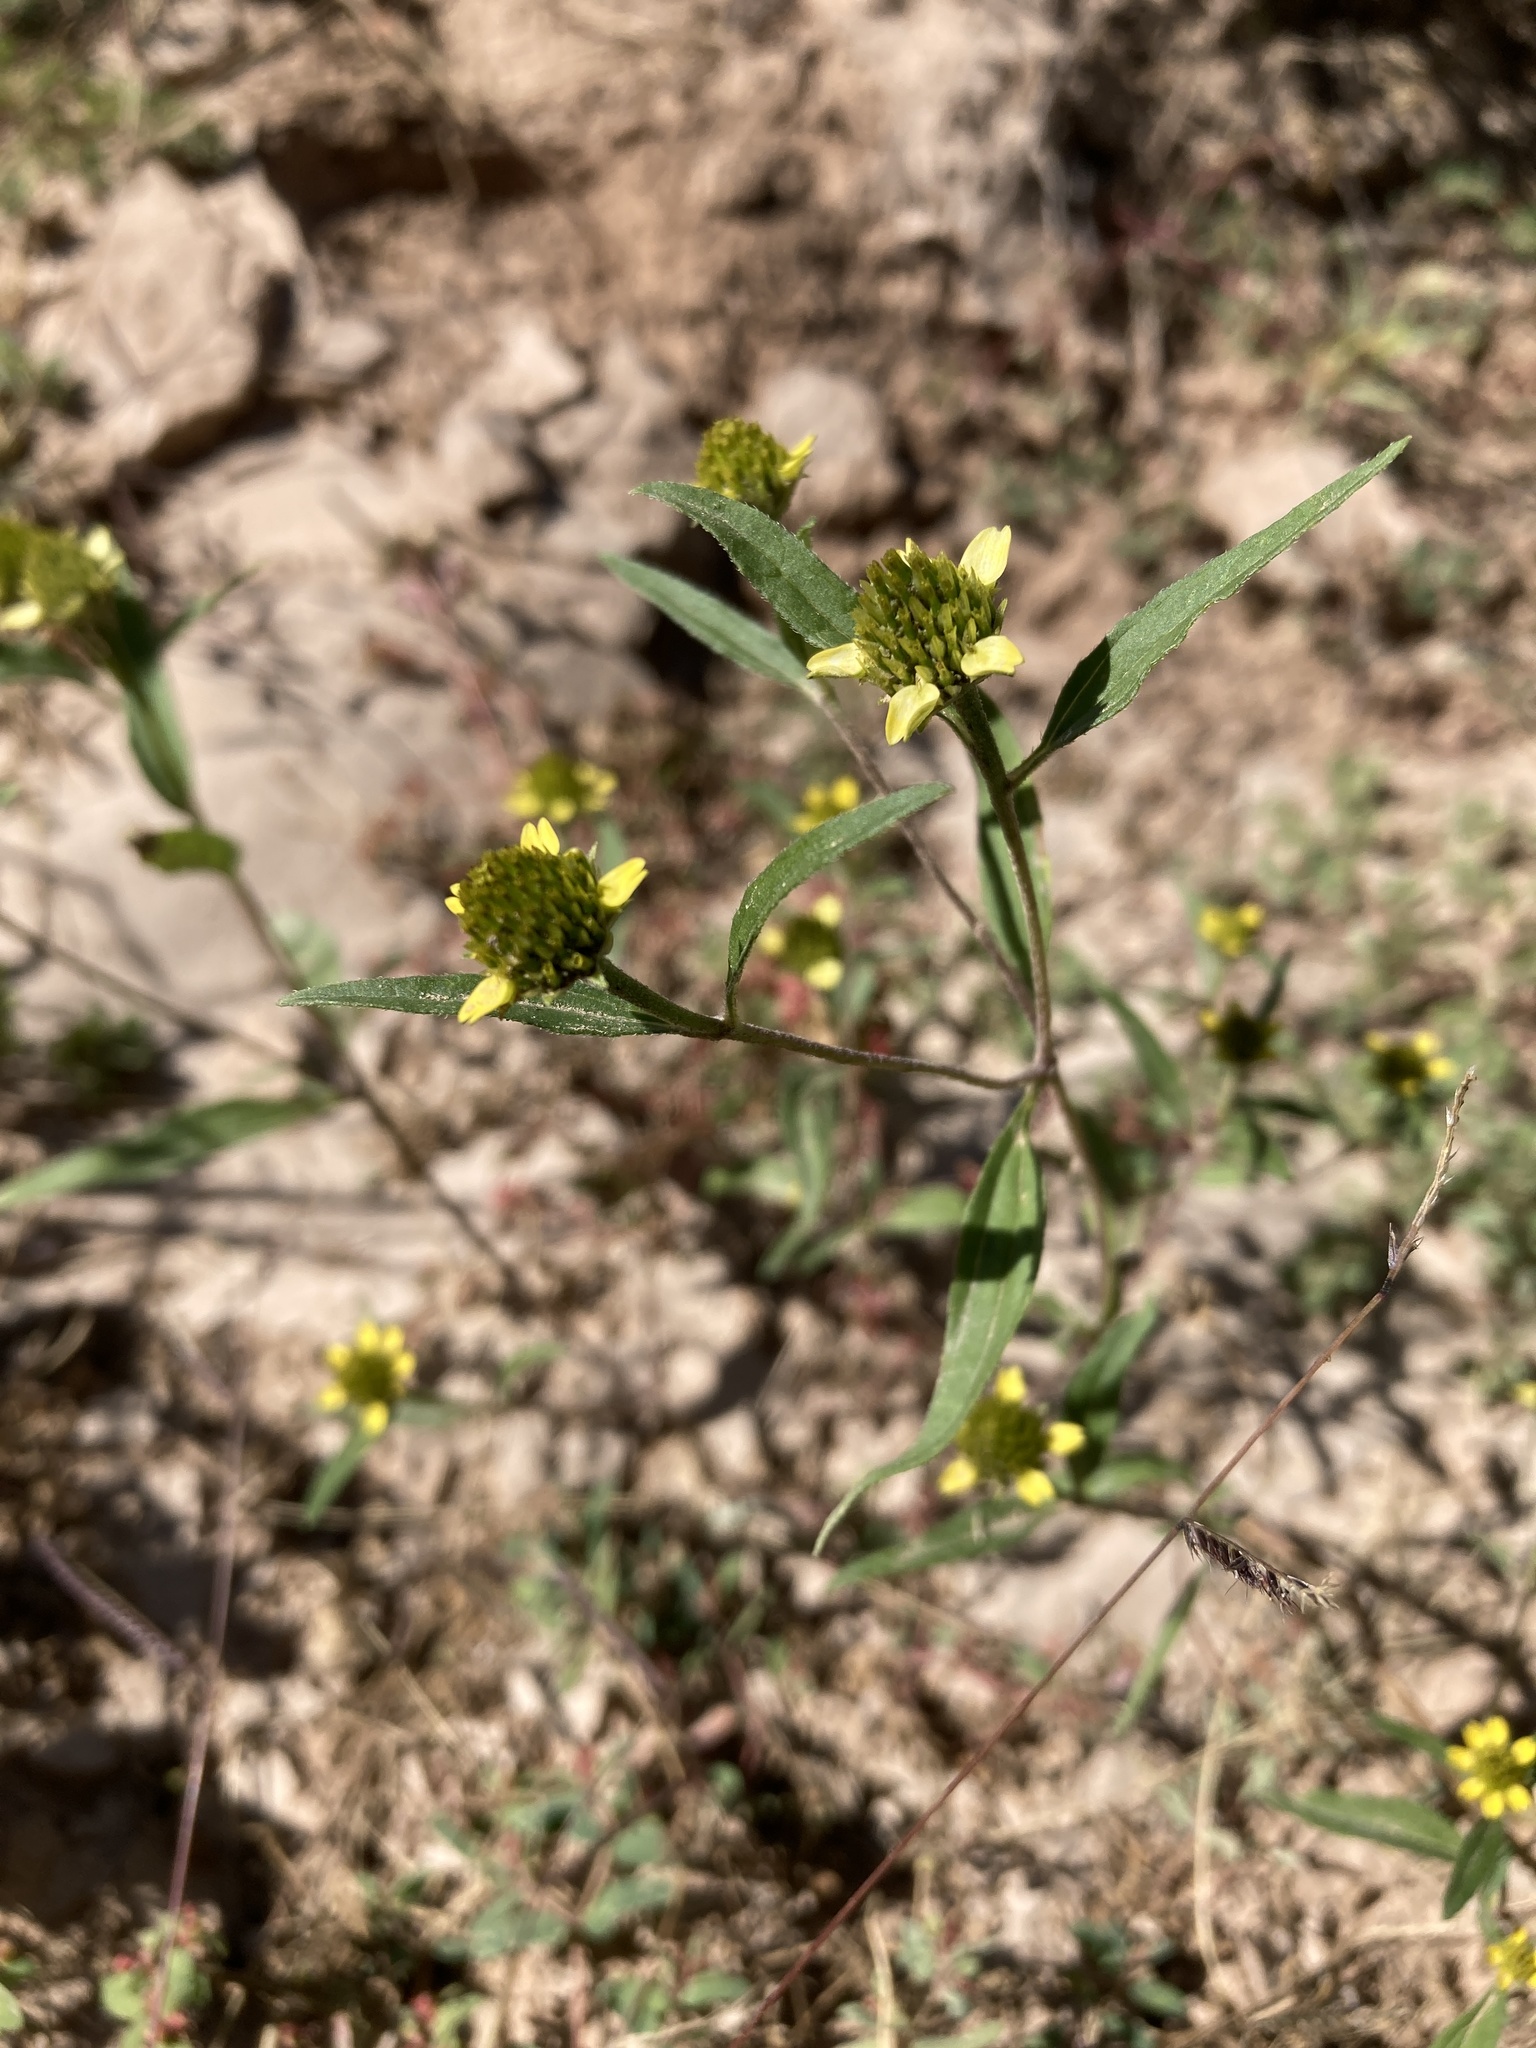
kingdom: Plantae
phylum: Tracheophyta
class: Magnoliopsida
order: Asterales
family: Asteraceae
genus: Sanvitalia
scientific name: Sanvitalia abertii
